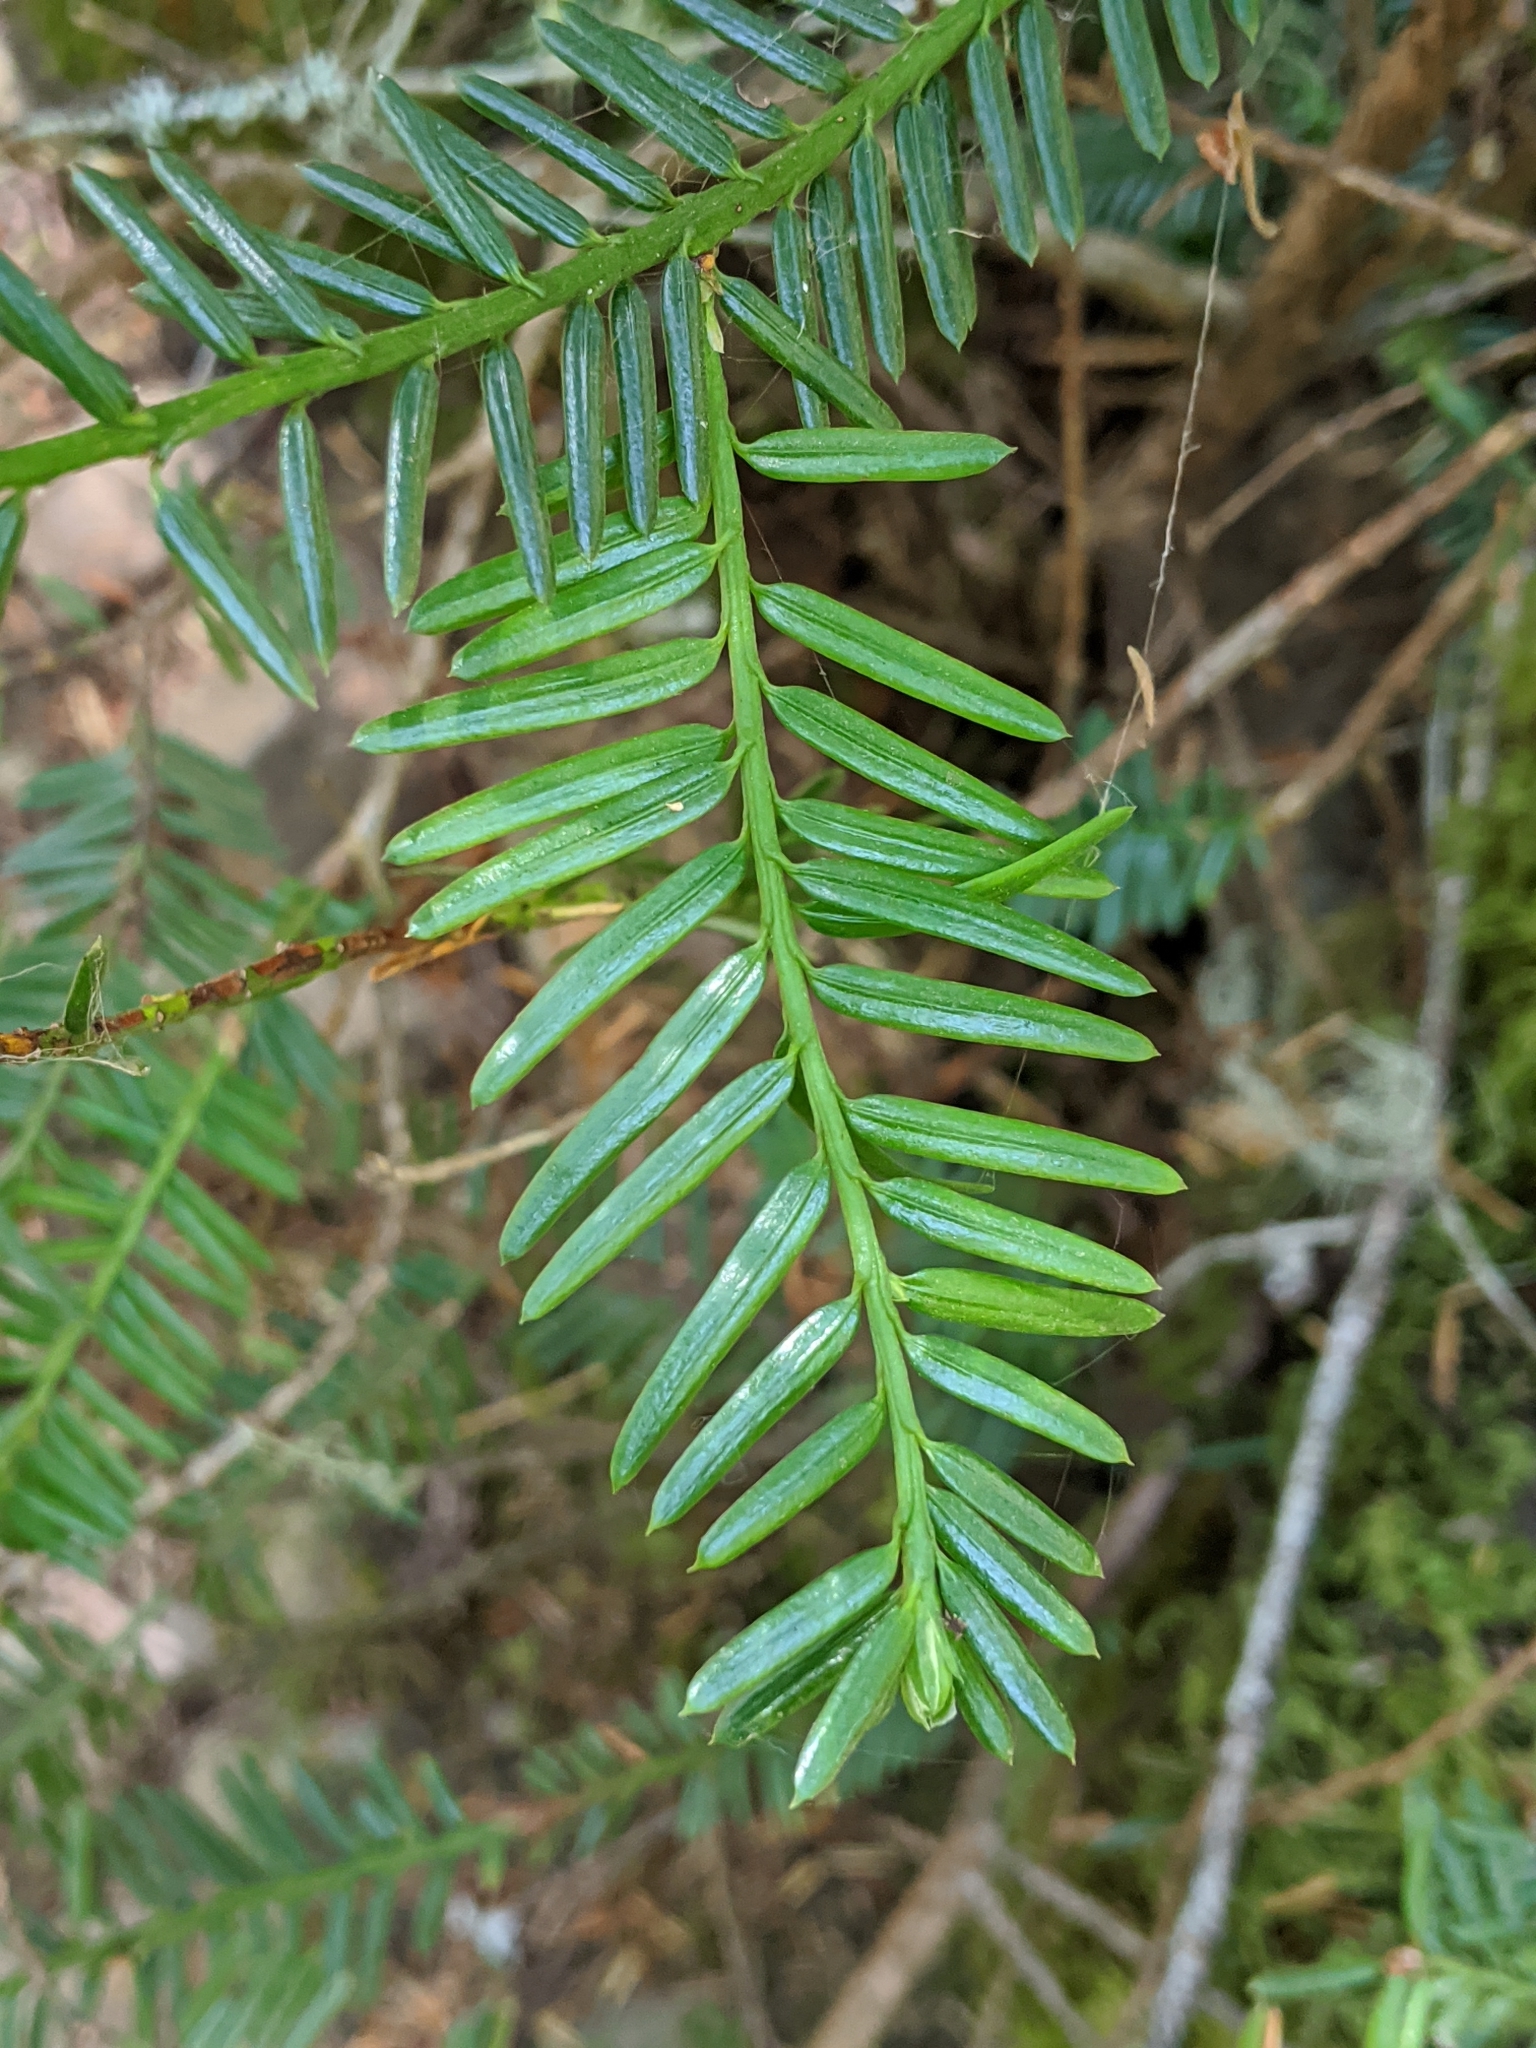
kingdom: Plantae
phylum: Tracheophyta
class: Pinopsida
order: Pinales
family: Taxaceae
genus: Taxus
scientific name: Taxus brevifolia
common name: Pacific yew
